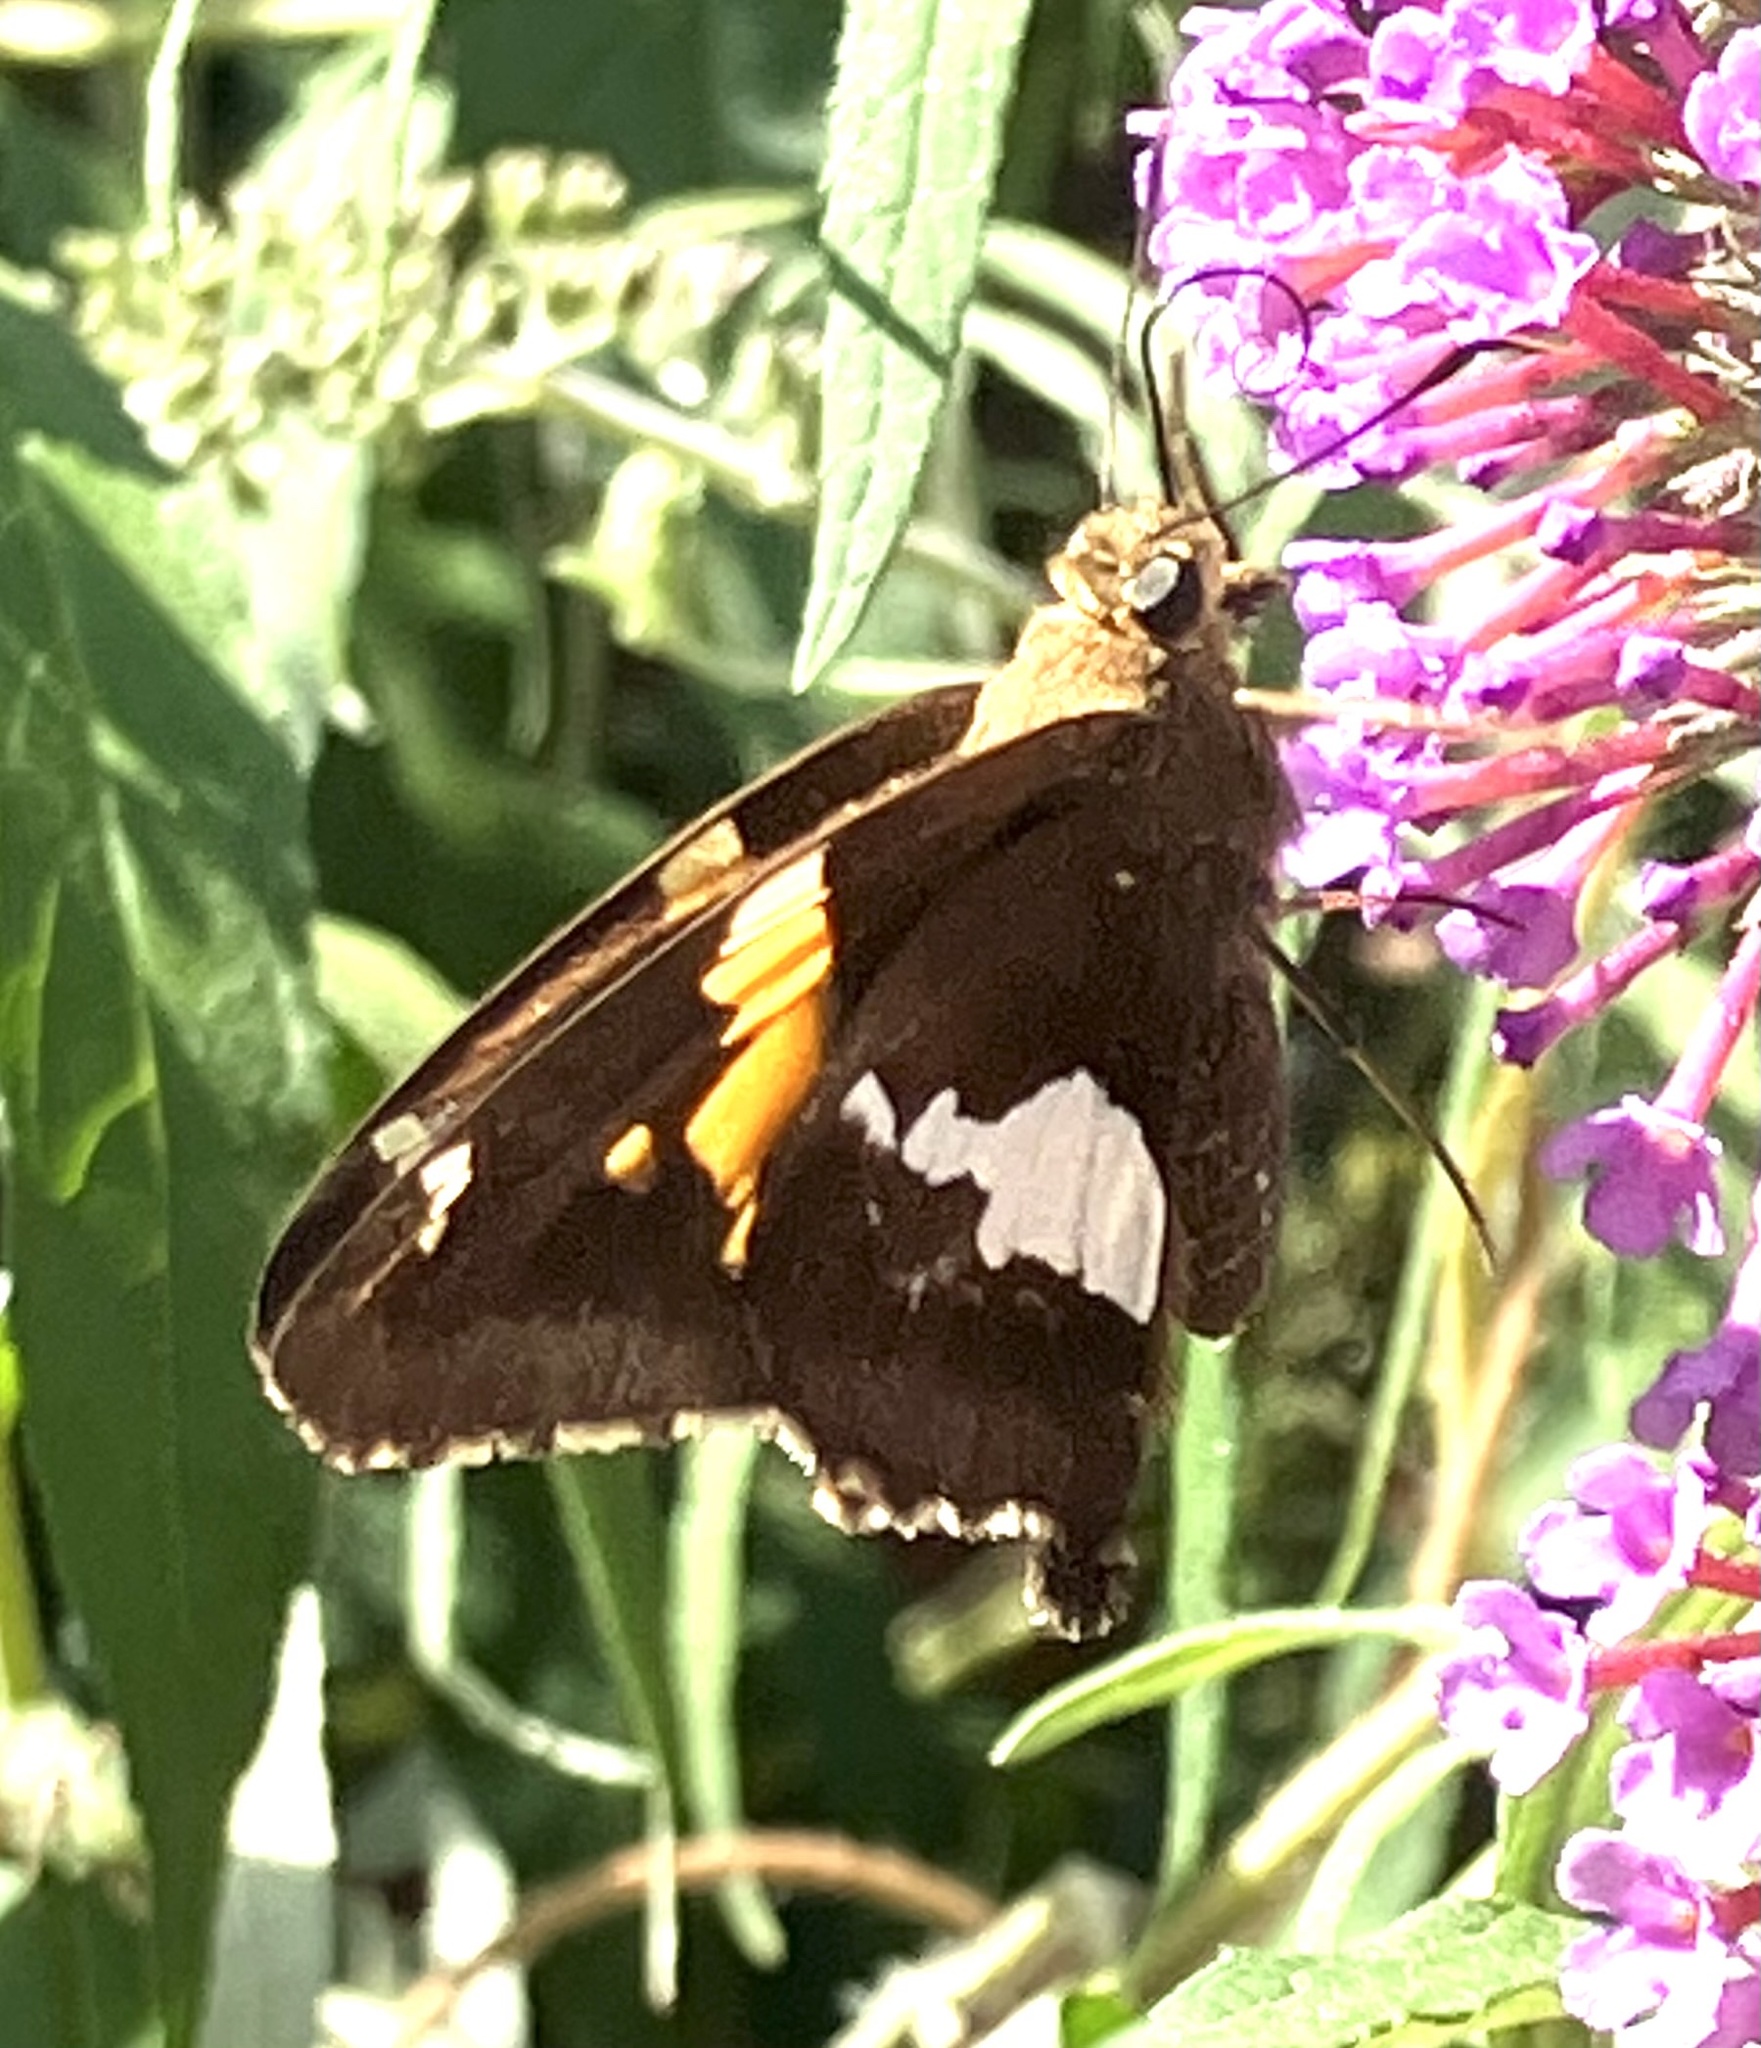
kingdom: Animalia
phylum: Arthropoda
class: Insecta
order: Lepidoptera
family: Hesperiidae
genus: Epargyreus
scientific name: Epargyreus clarus
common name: Silver-spotted skipper
